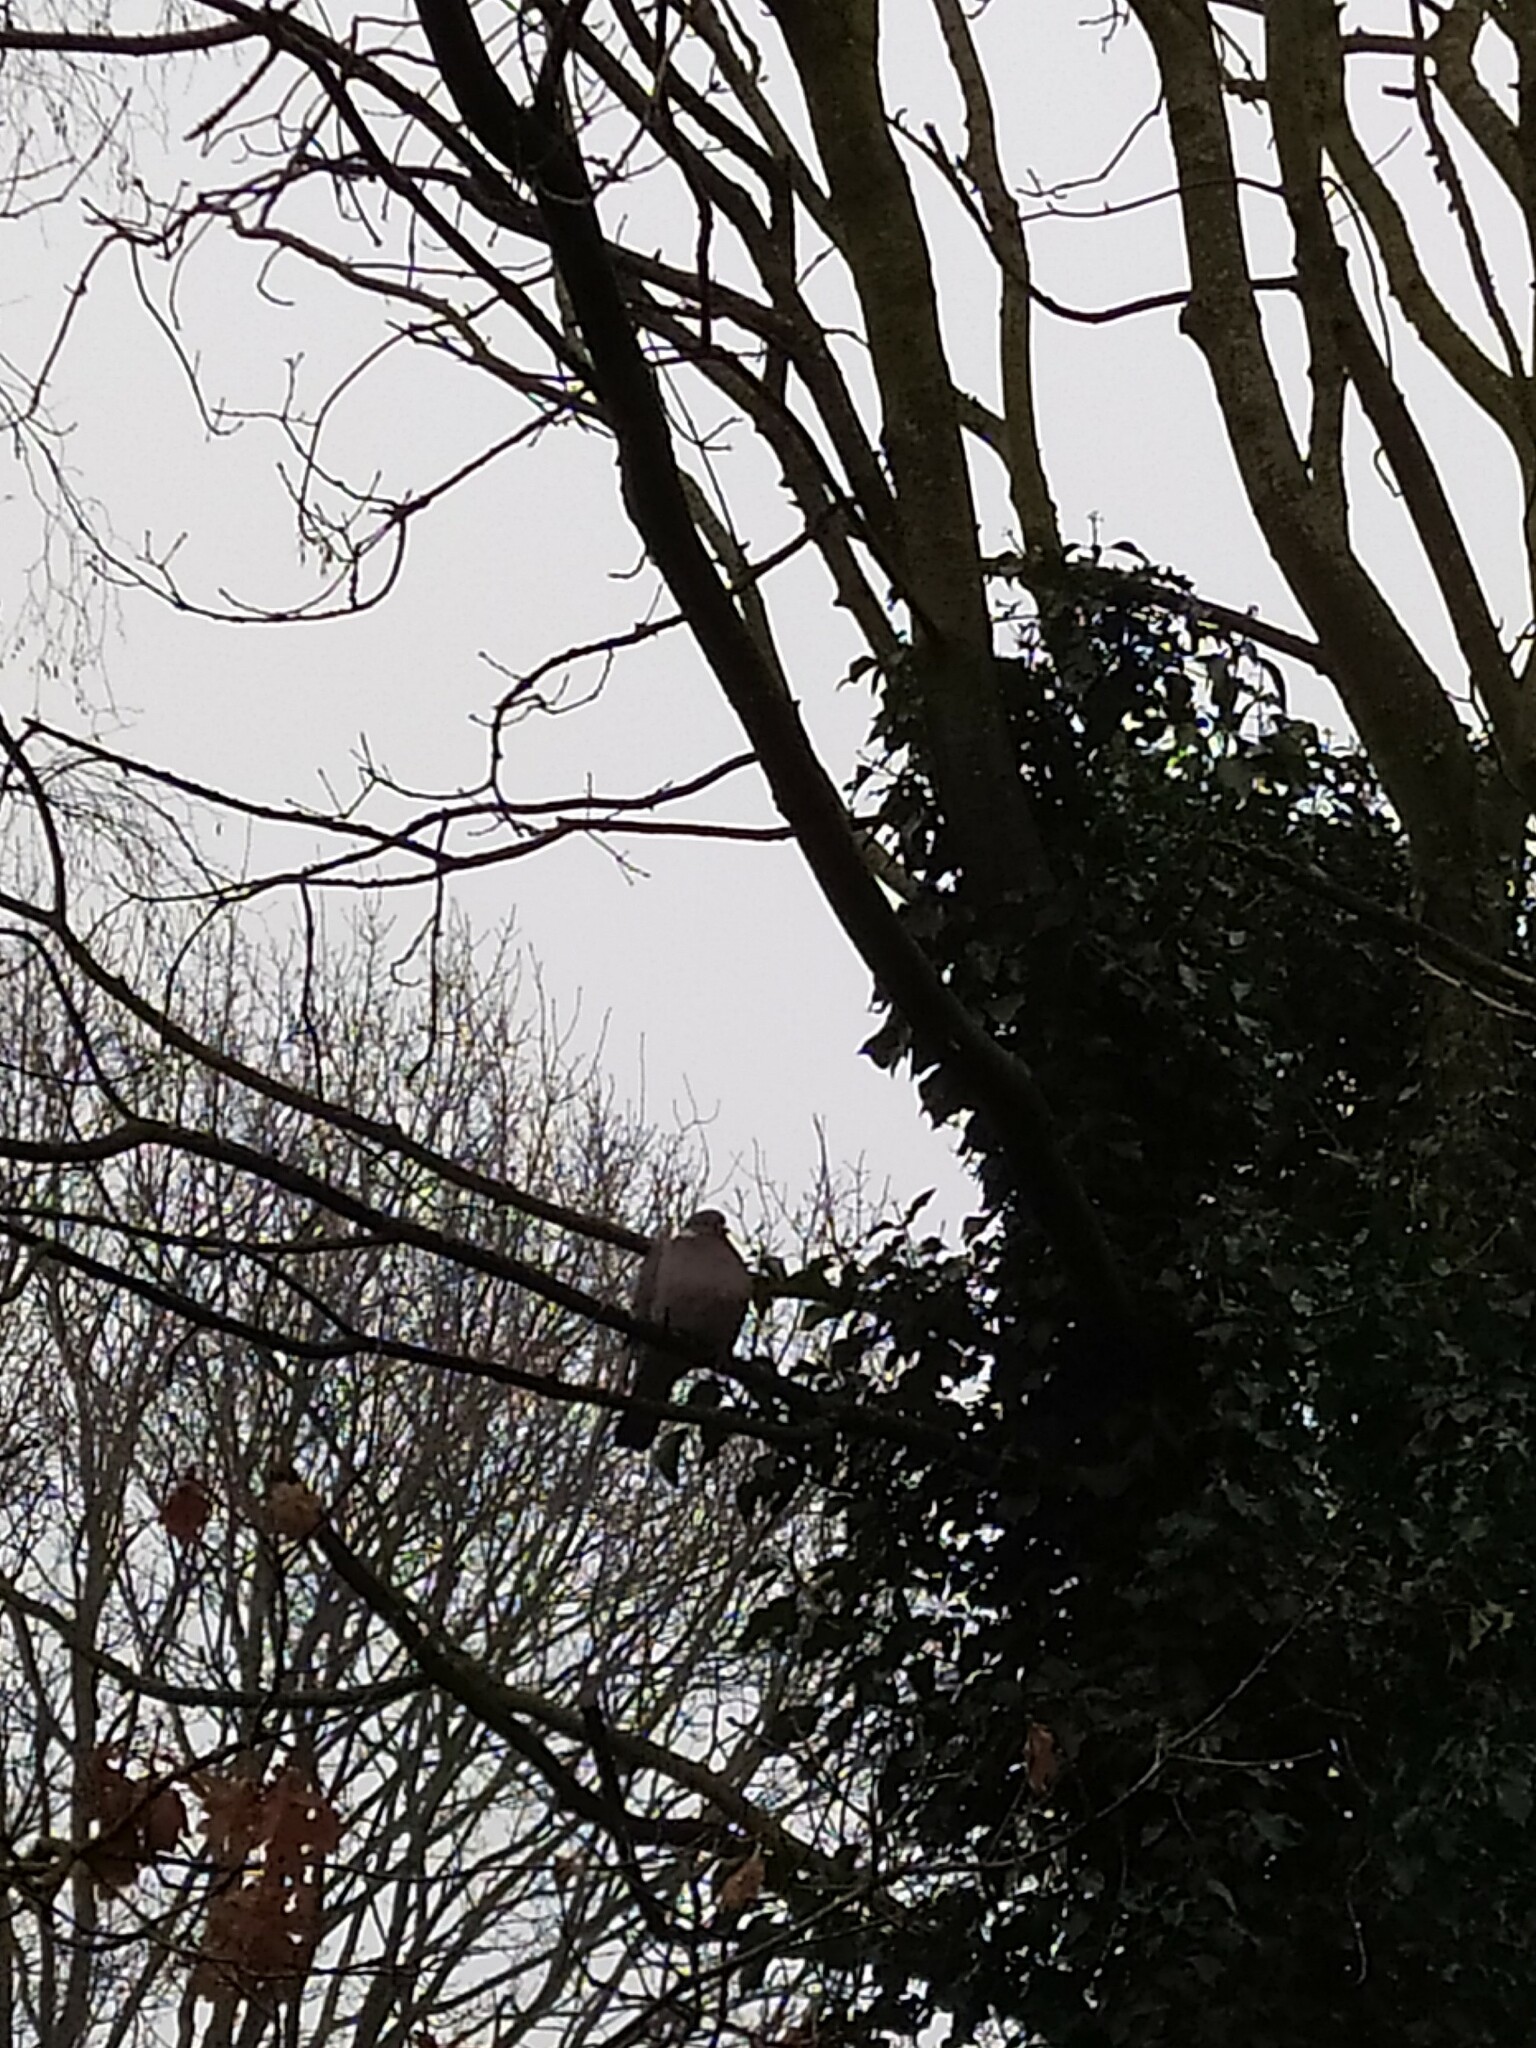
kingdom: Animalia
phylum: Chordata
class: Aves
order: Columbiformes
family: Columbidae
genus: Columba
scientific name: Columba palumbus
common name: Common wood pigeon
